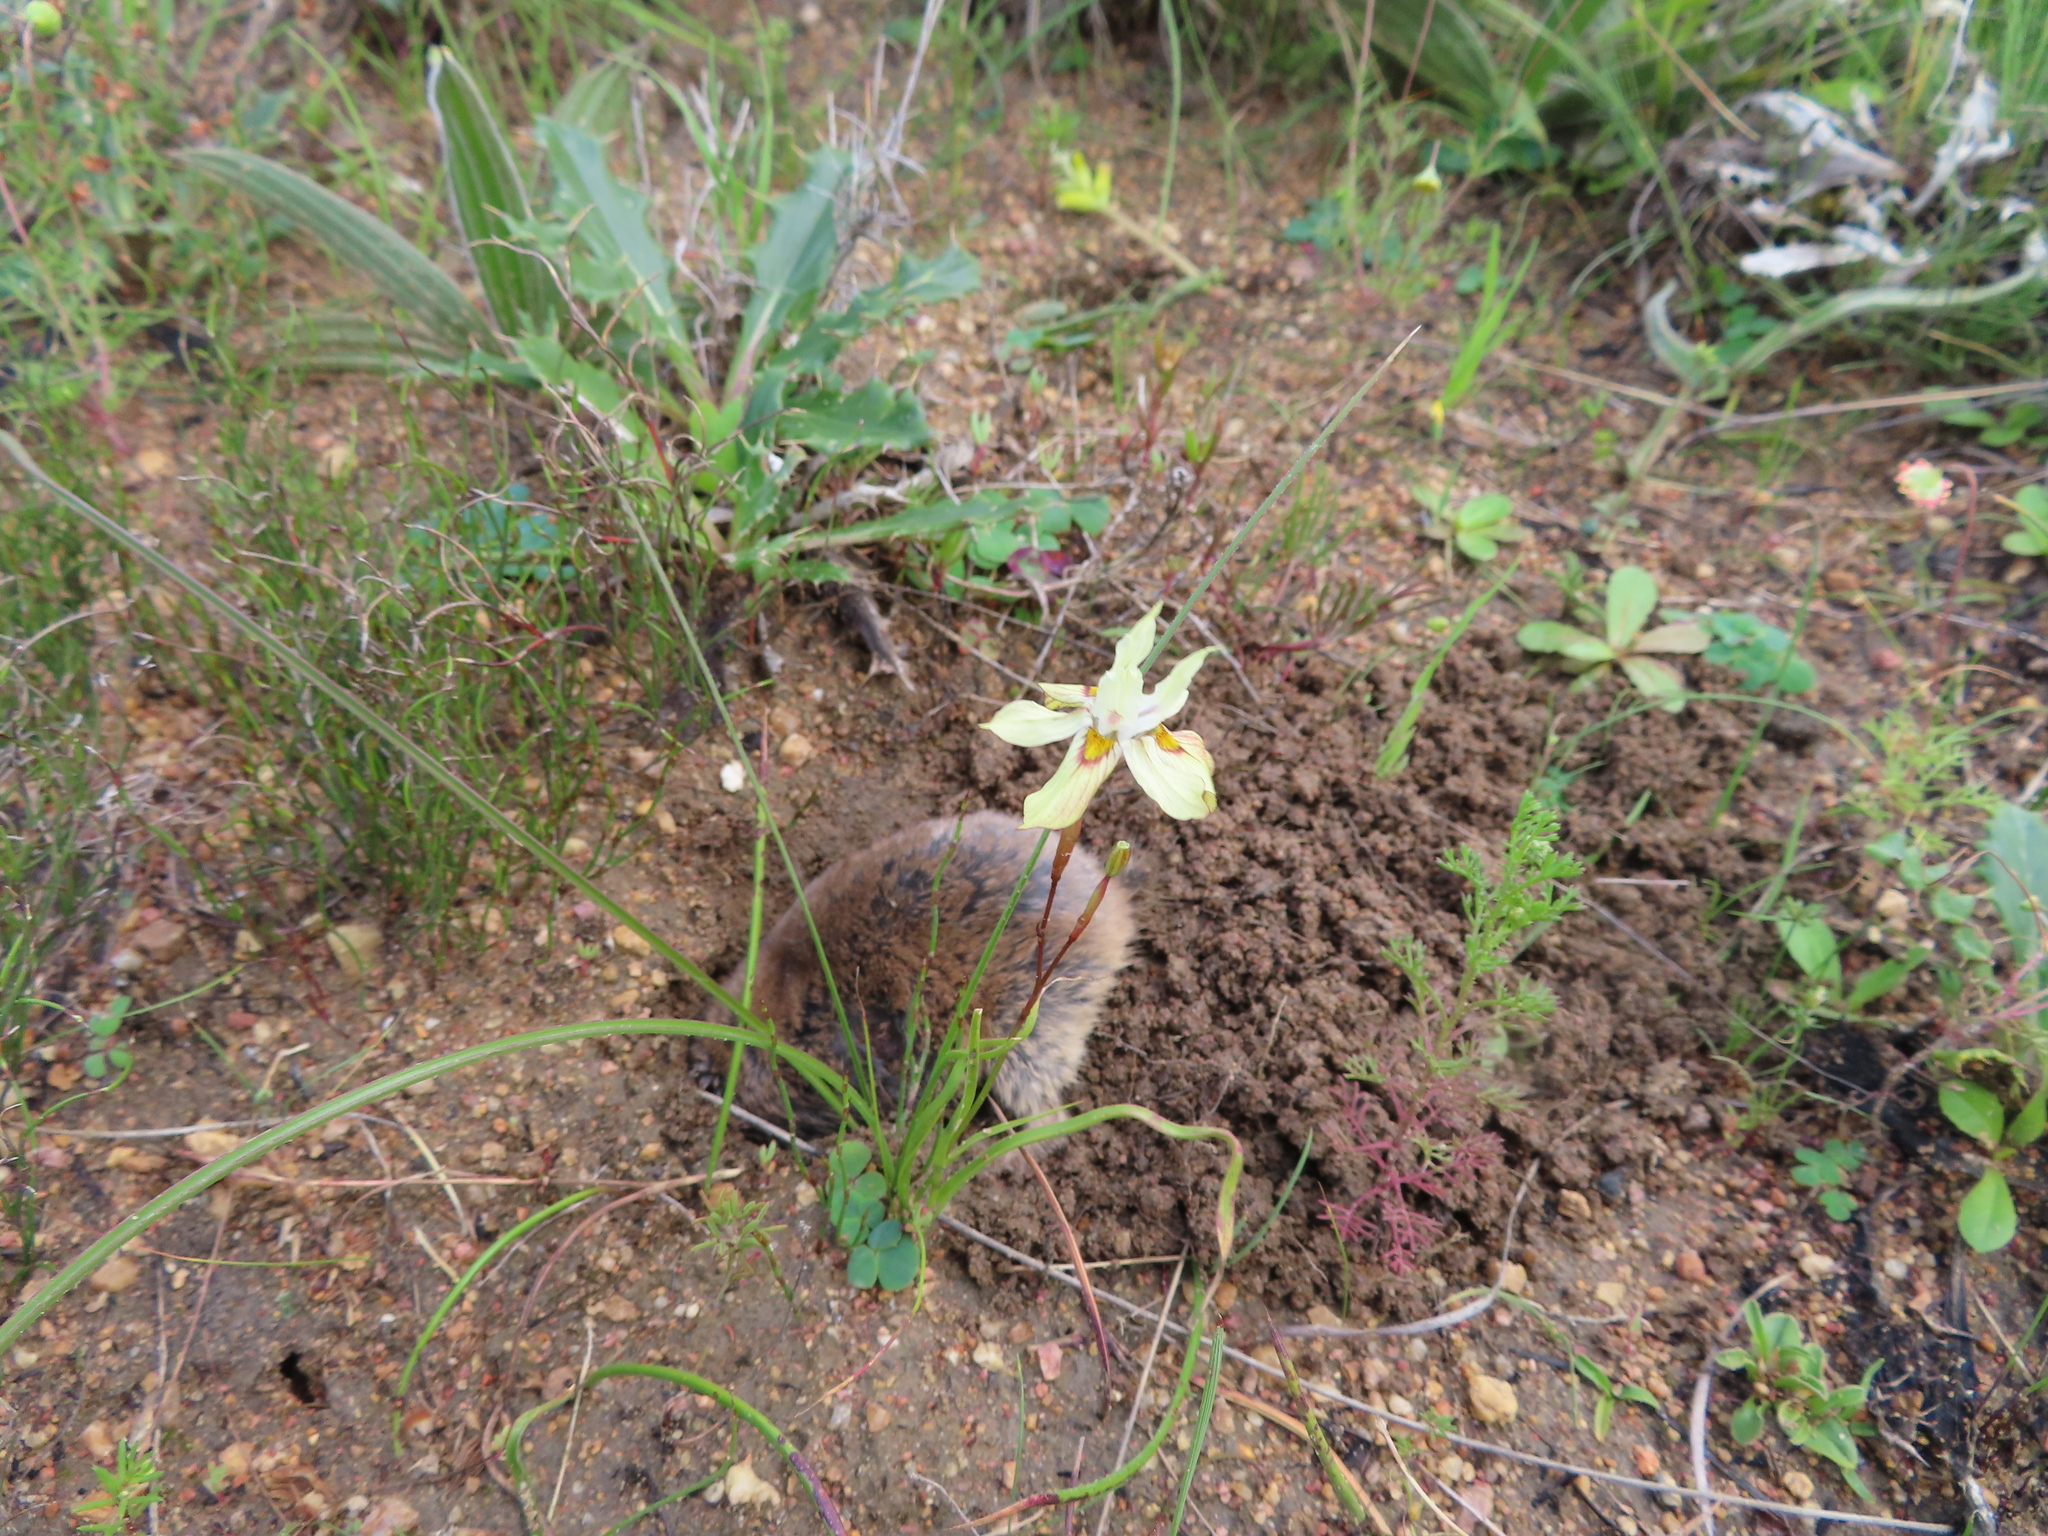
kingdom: Animalia
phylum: Chordata
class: Mammalia
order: Rodentia
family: Bathyergidae
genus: Cryptomys
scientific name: Cryptomys hottentotus
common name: Southern african mole-rat
